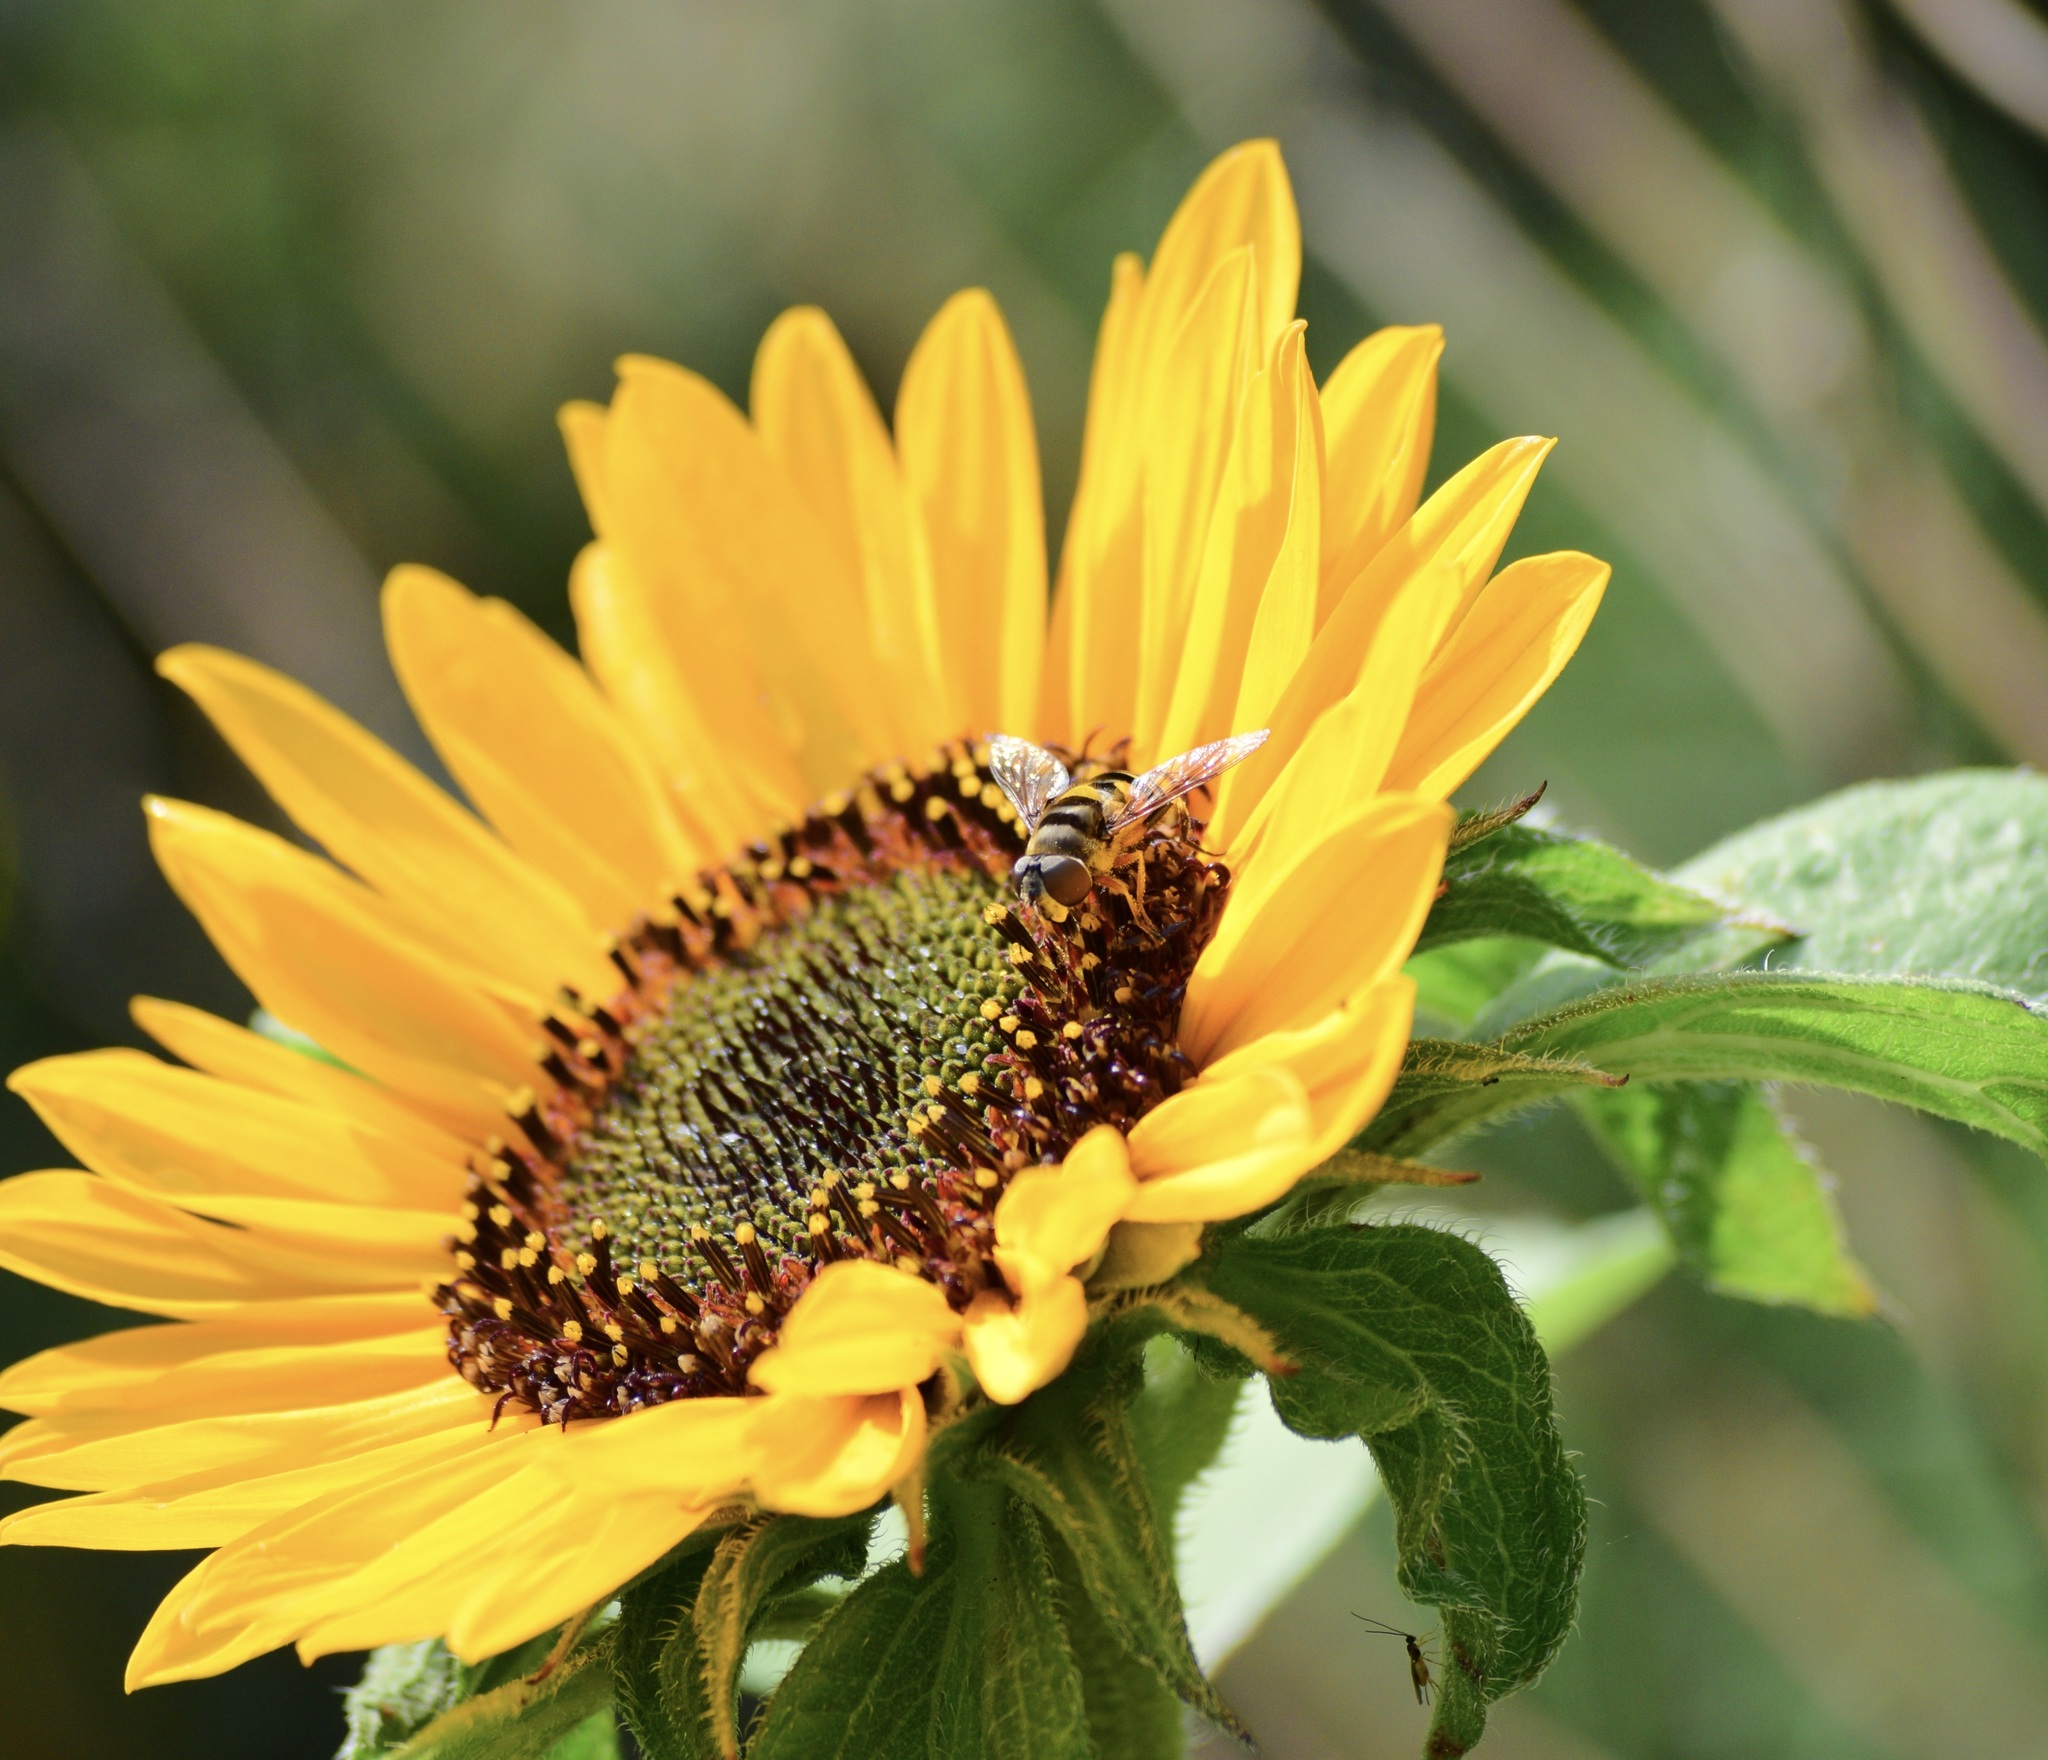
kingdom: Animalia
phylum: Arthropoda
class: Insecta
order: Diptera
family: Syrphidae
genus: Eristalis
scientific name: Eristalis transversa
